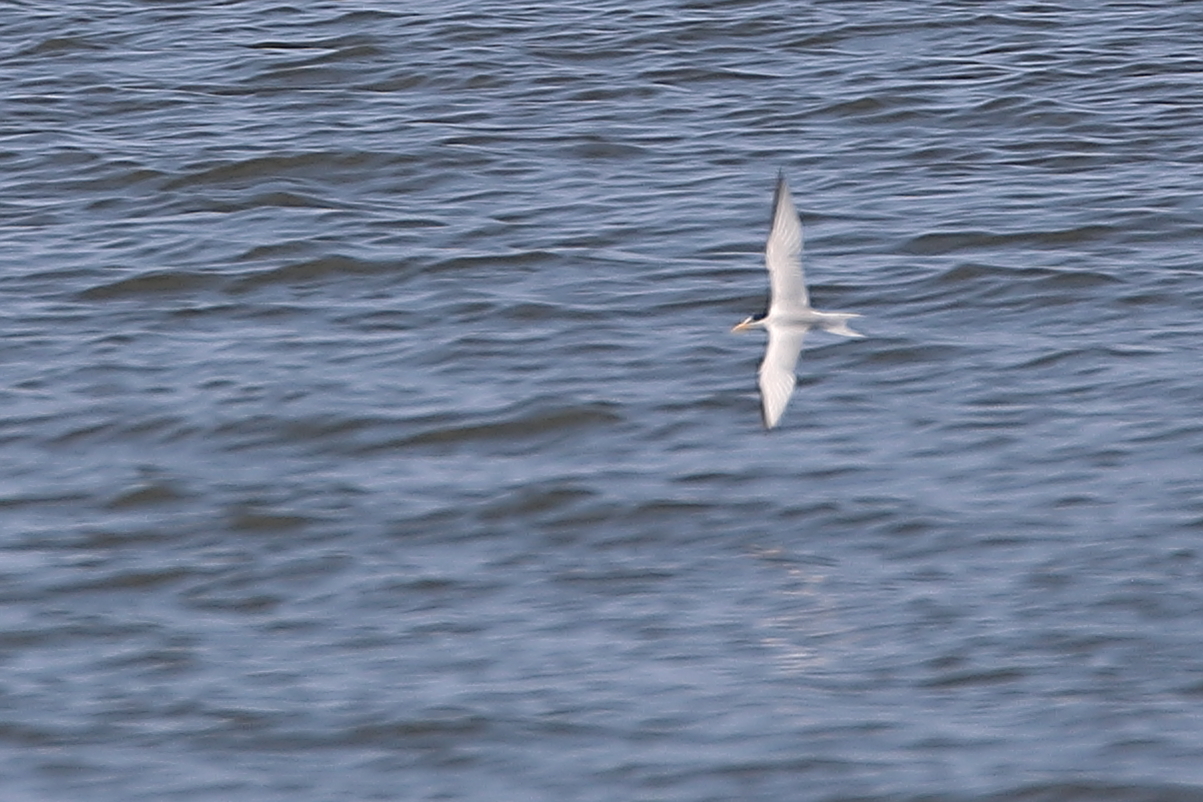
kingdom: Animalia
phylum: Chordata
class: Aves
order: Charadriiformes
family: Laridae
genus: Sternula
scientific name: Sternula antillarum
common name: Least tern
